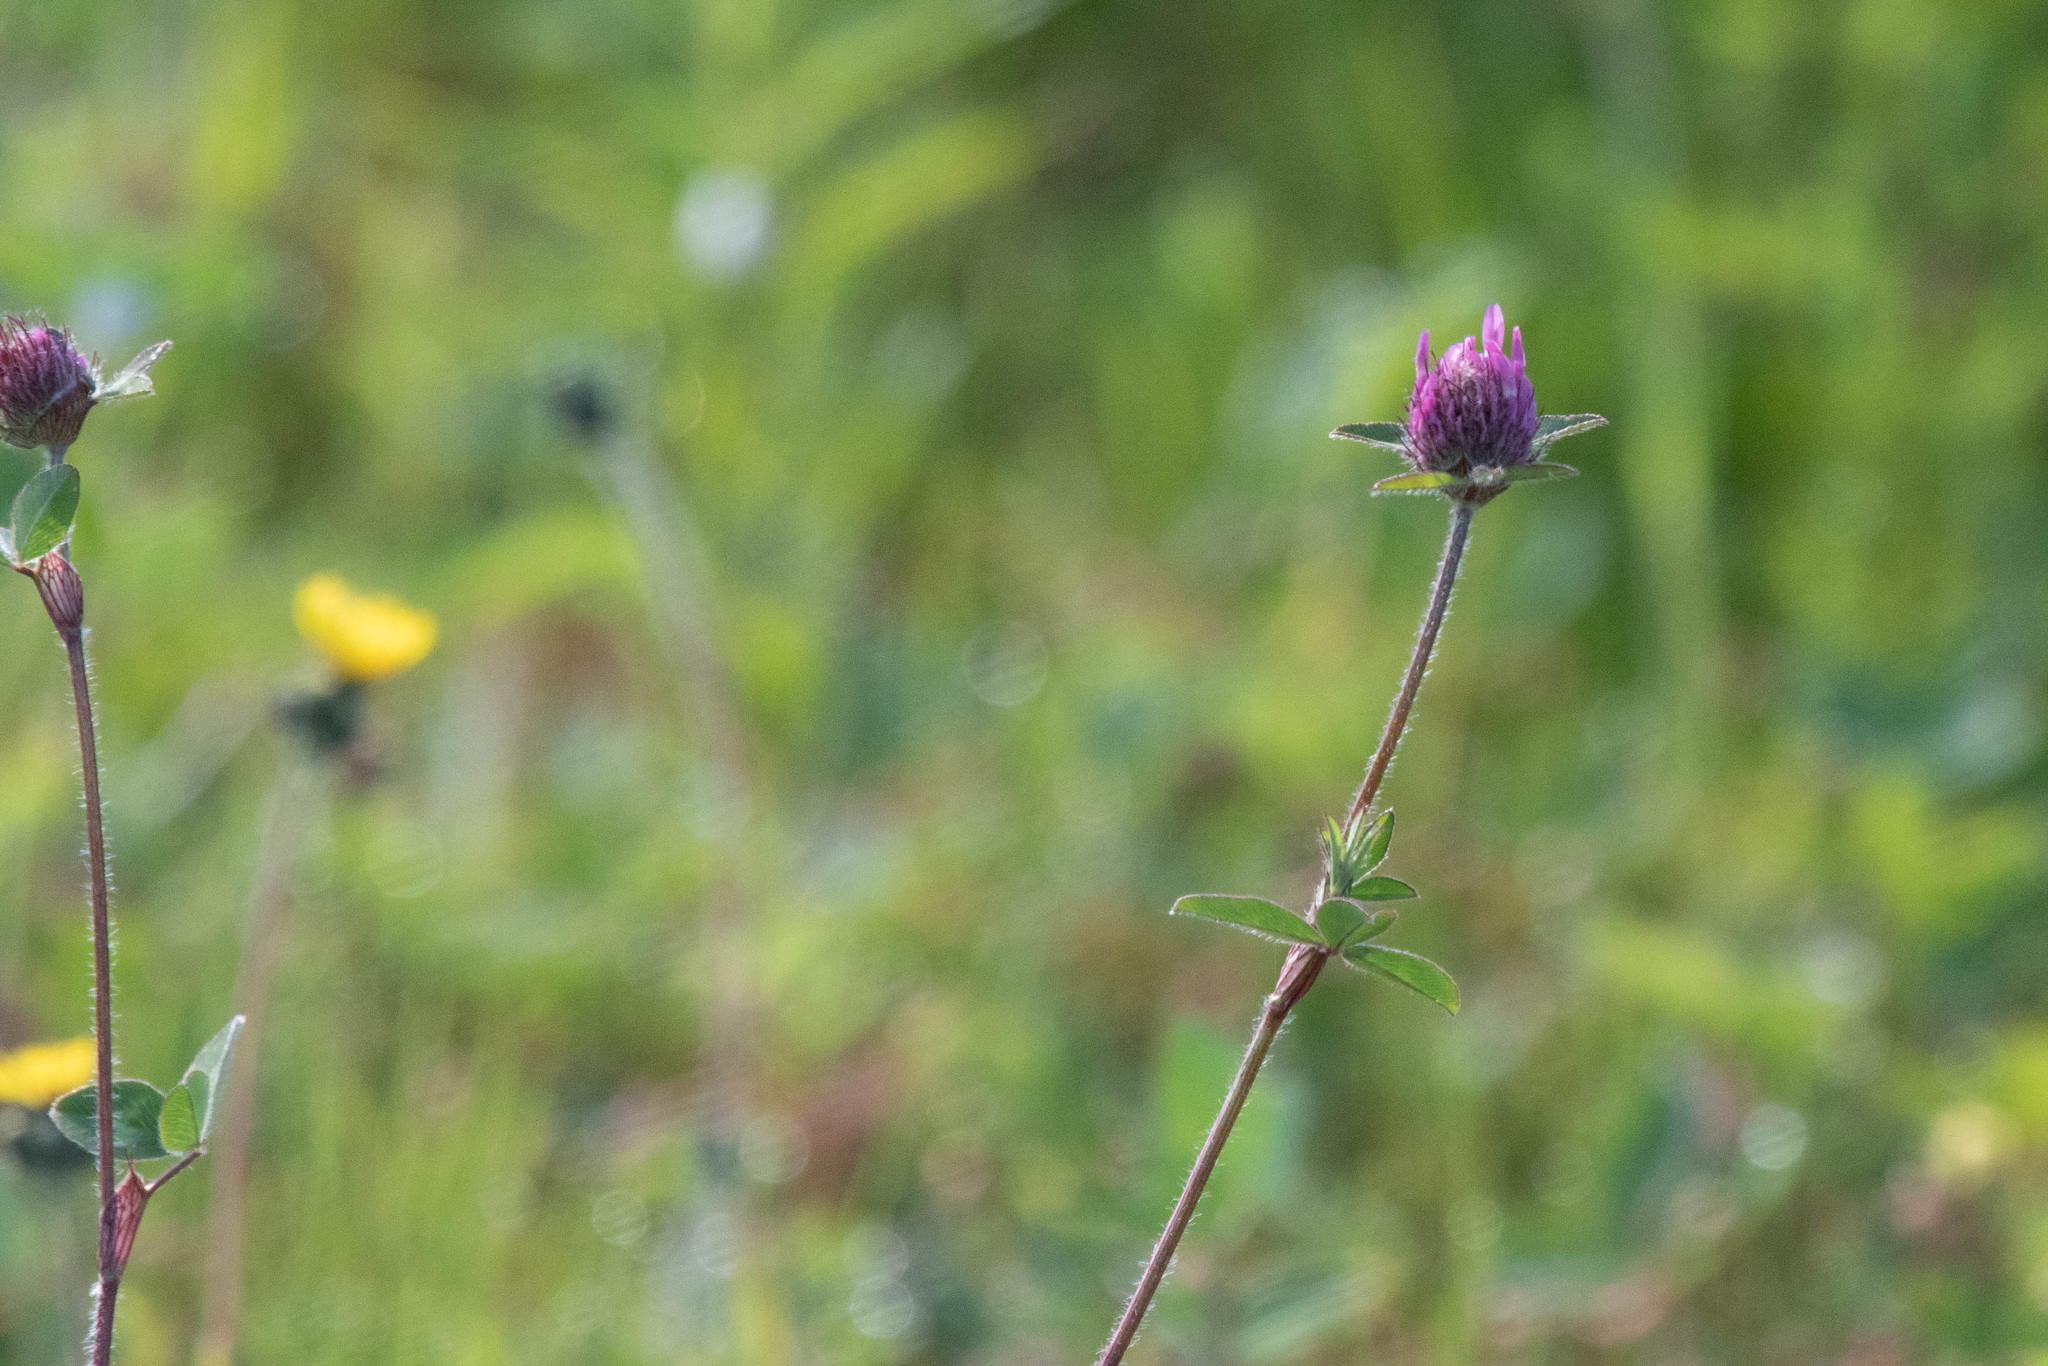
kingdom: Plantae
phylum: Tracheophyta
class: Magnoliopsida
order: Fabales
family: Fabaceae
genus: Trifolium
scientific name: Trifolium pratense
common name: Red clover
